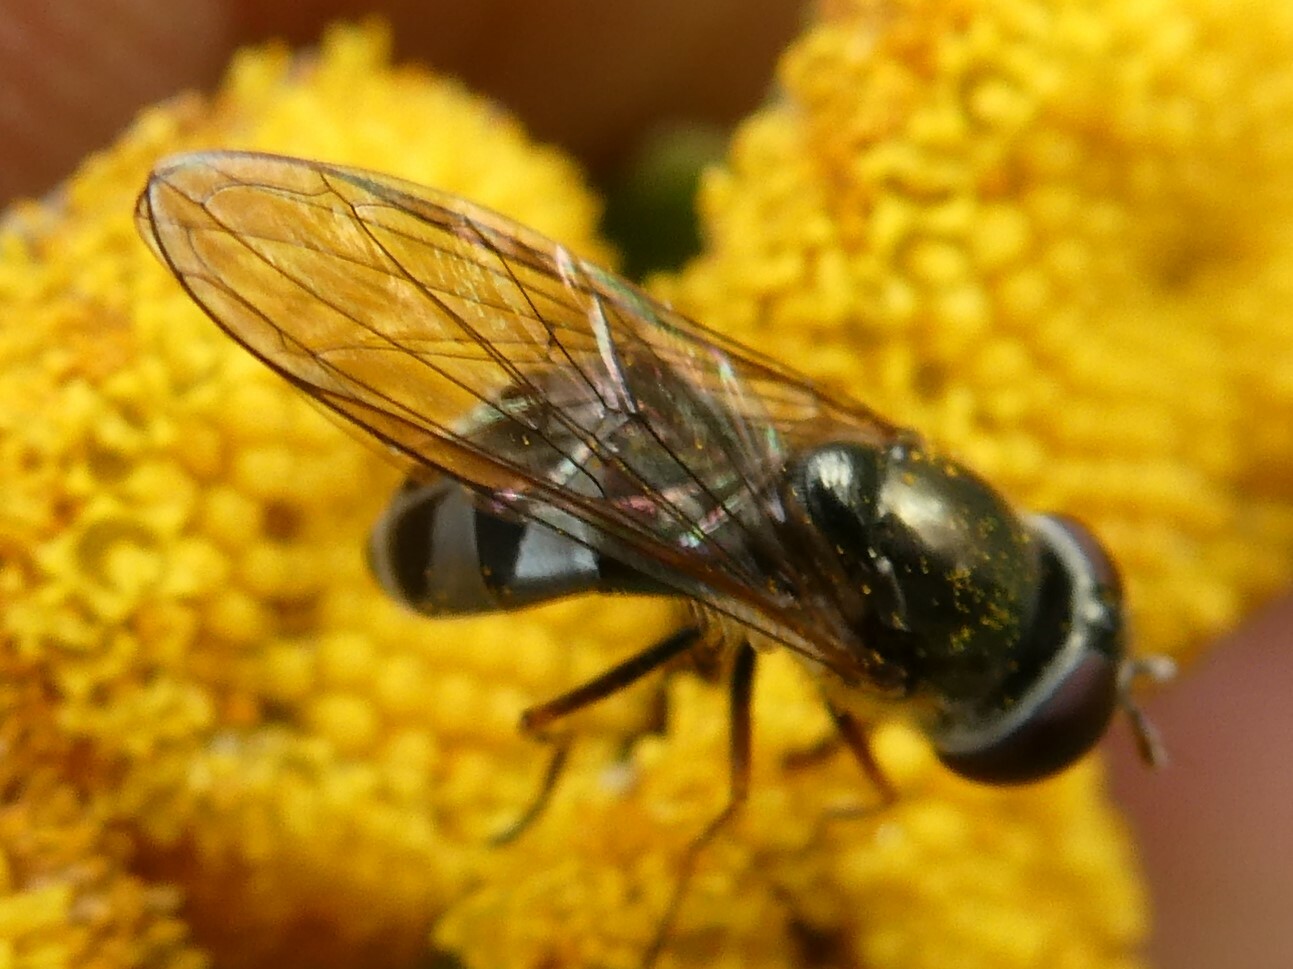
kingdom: Animalia
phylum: Arthropoda
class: Insecta
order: Diptera
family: Syrphidae
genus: Platycheirus
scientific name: Platycheirus
